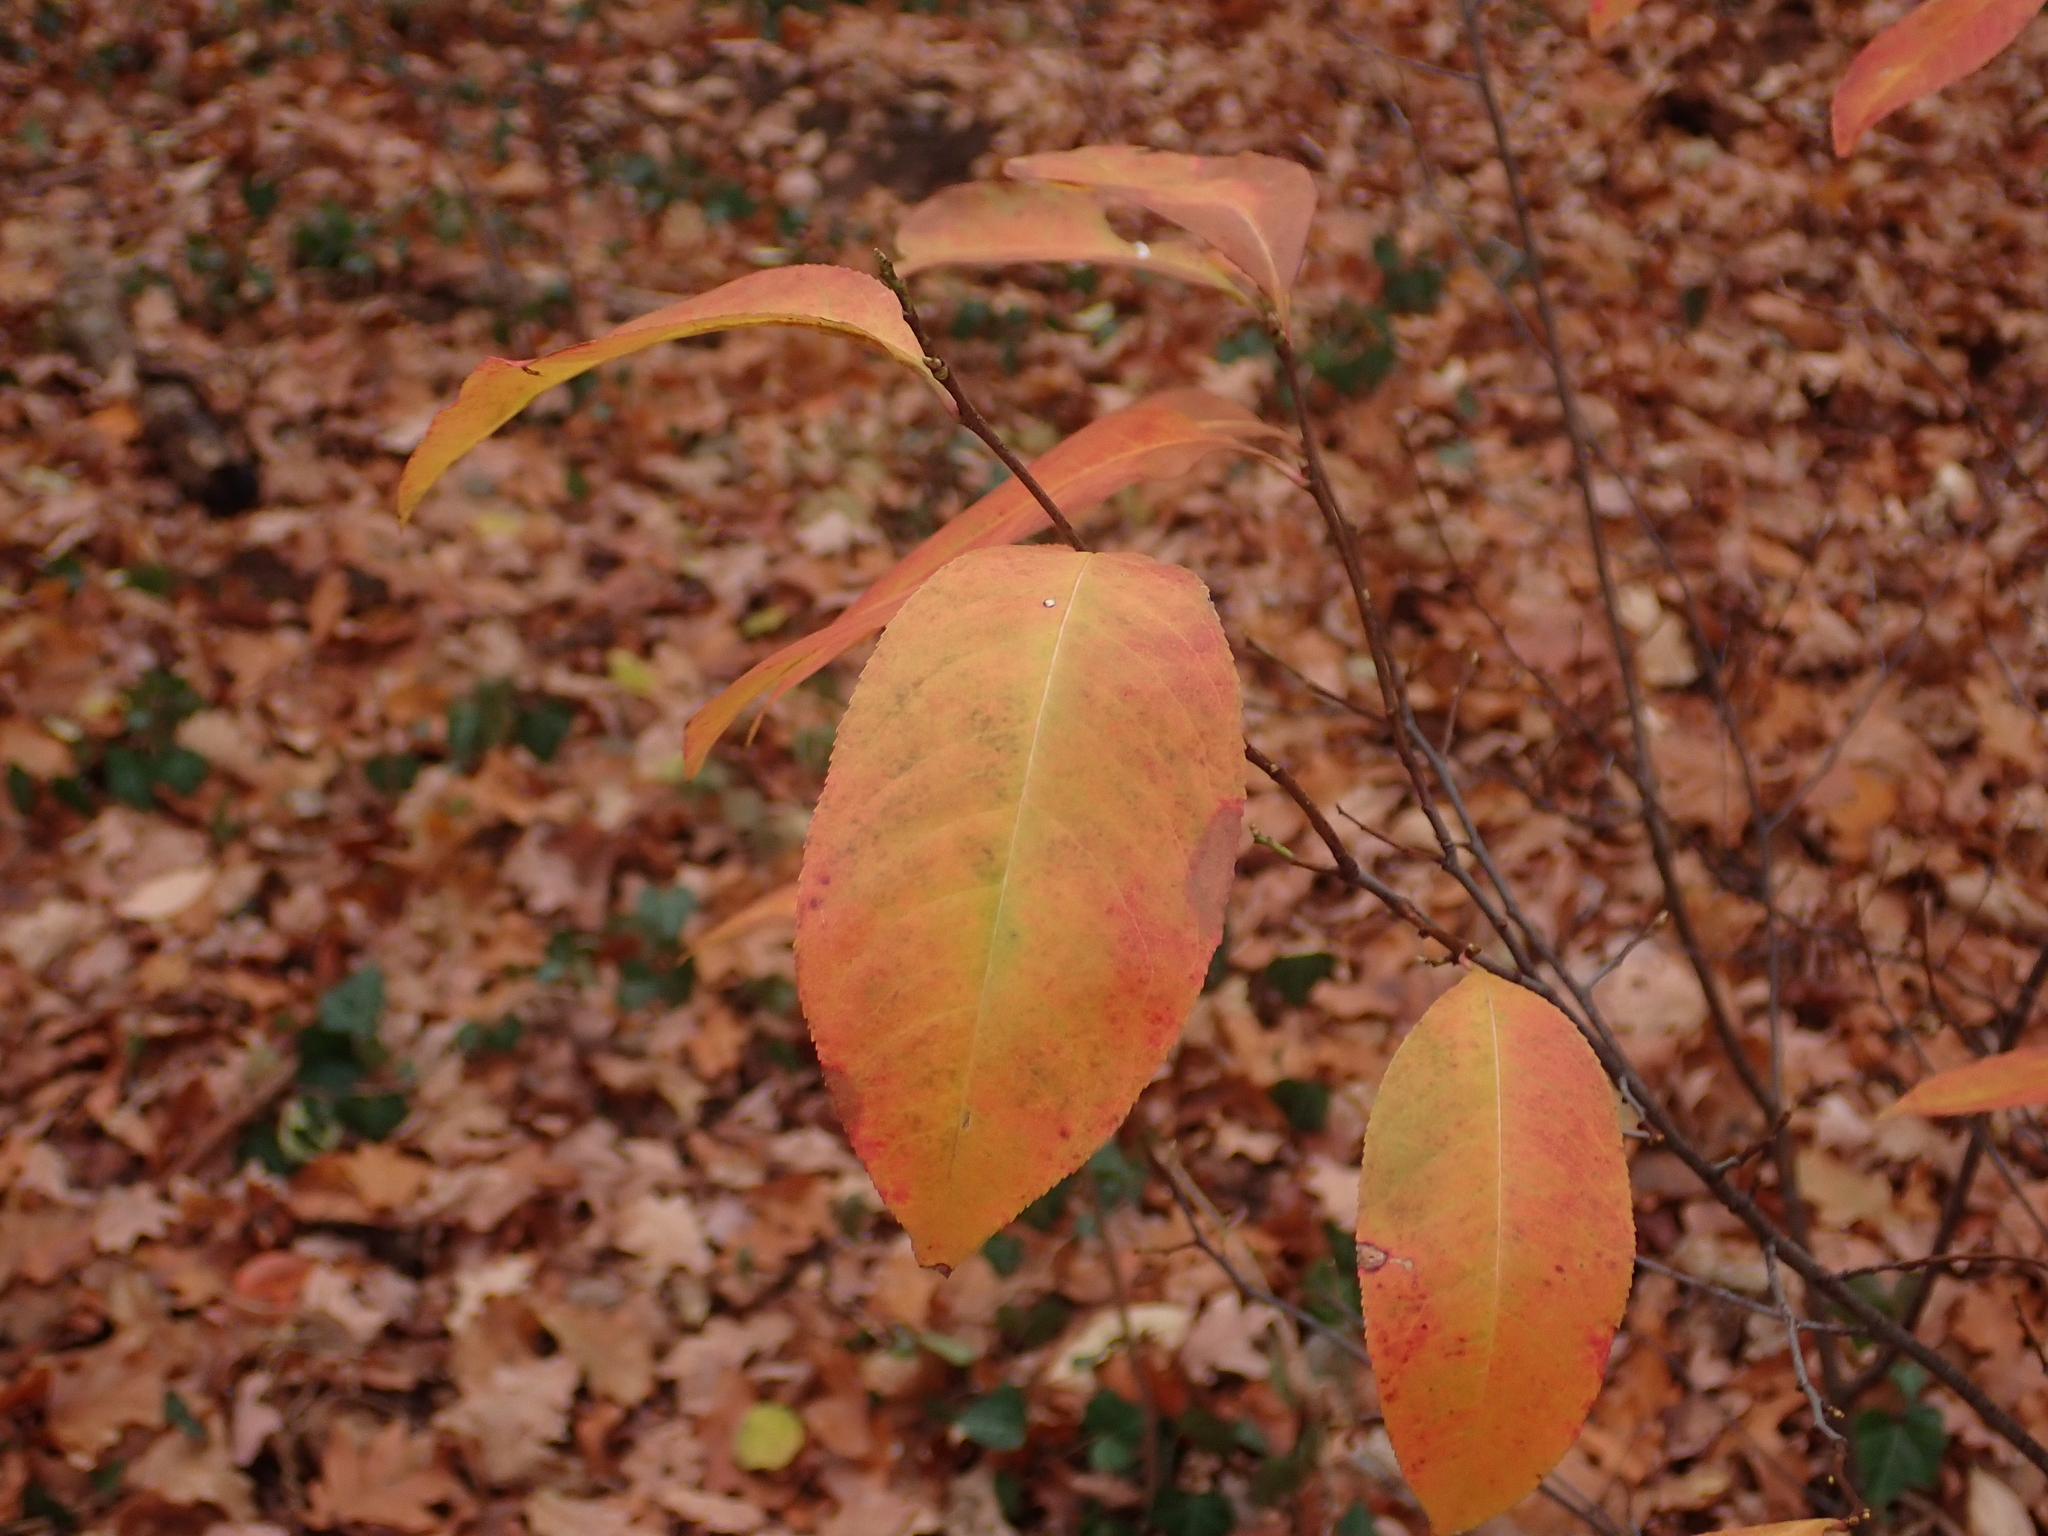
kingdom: Plantae
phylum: Tracheophyta
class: Magnoliopsida
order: Rosales
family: Rosaceae
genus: Prunus
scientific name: Prunus serotina
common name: Black cherry
